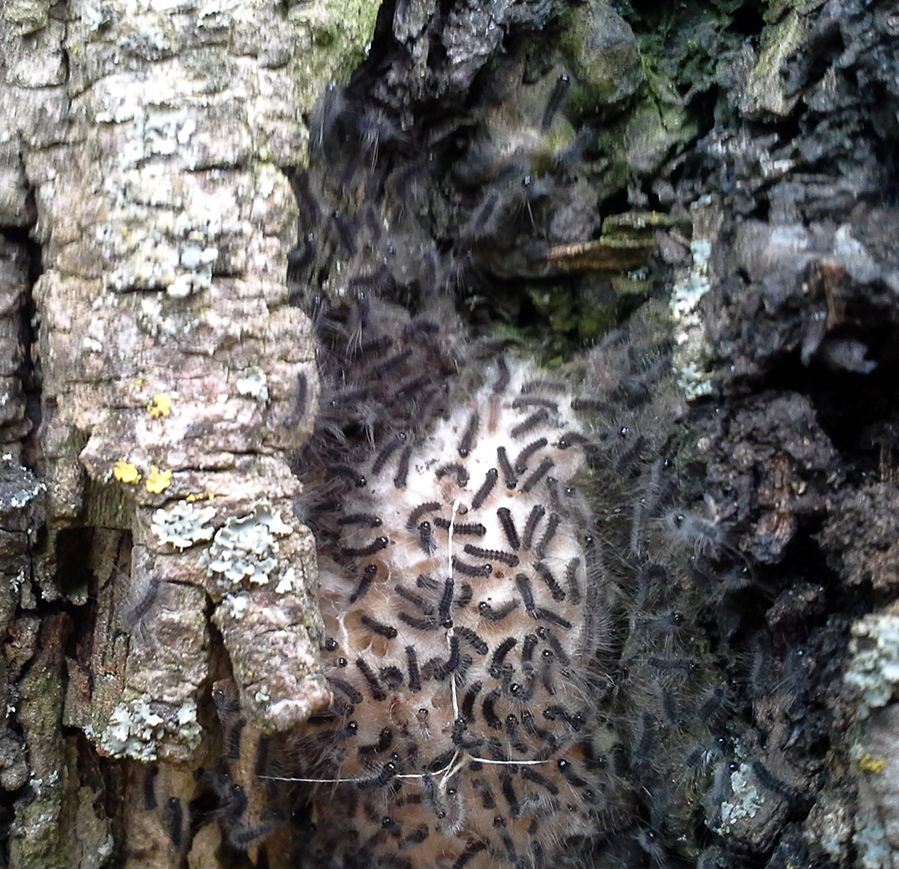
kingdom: Animalia
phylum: Arthropoda
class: Insecta
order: Lepidoptera
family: Erebidae
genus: Lymantria
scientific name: Lymantria dispar
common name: Gypsy moth
